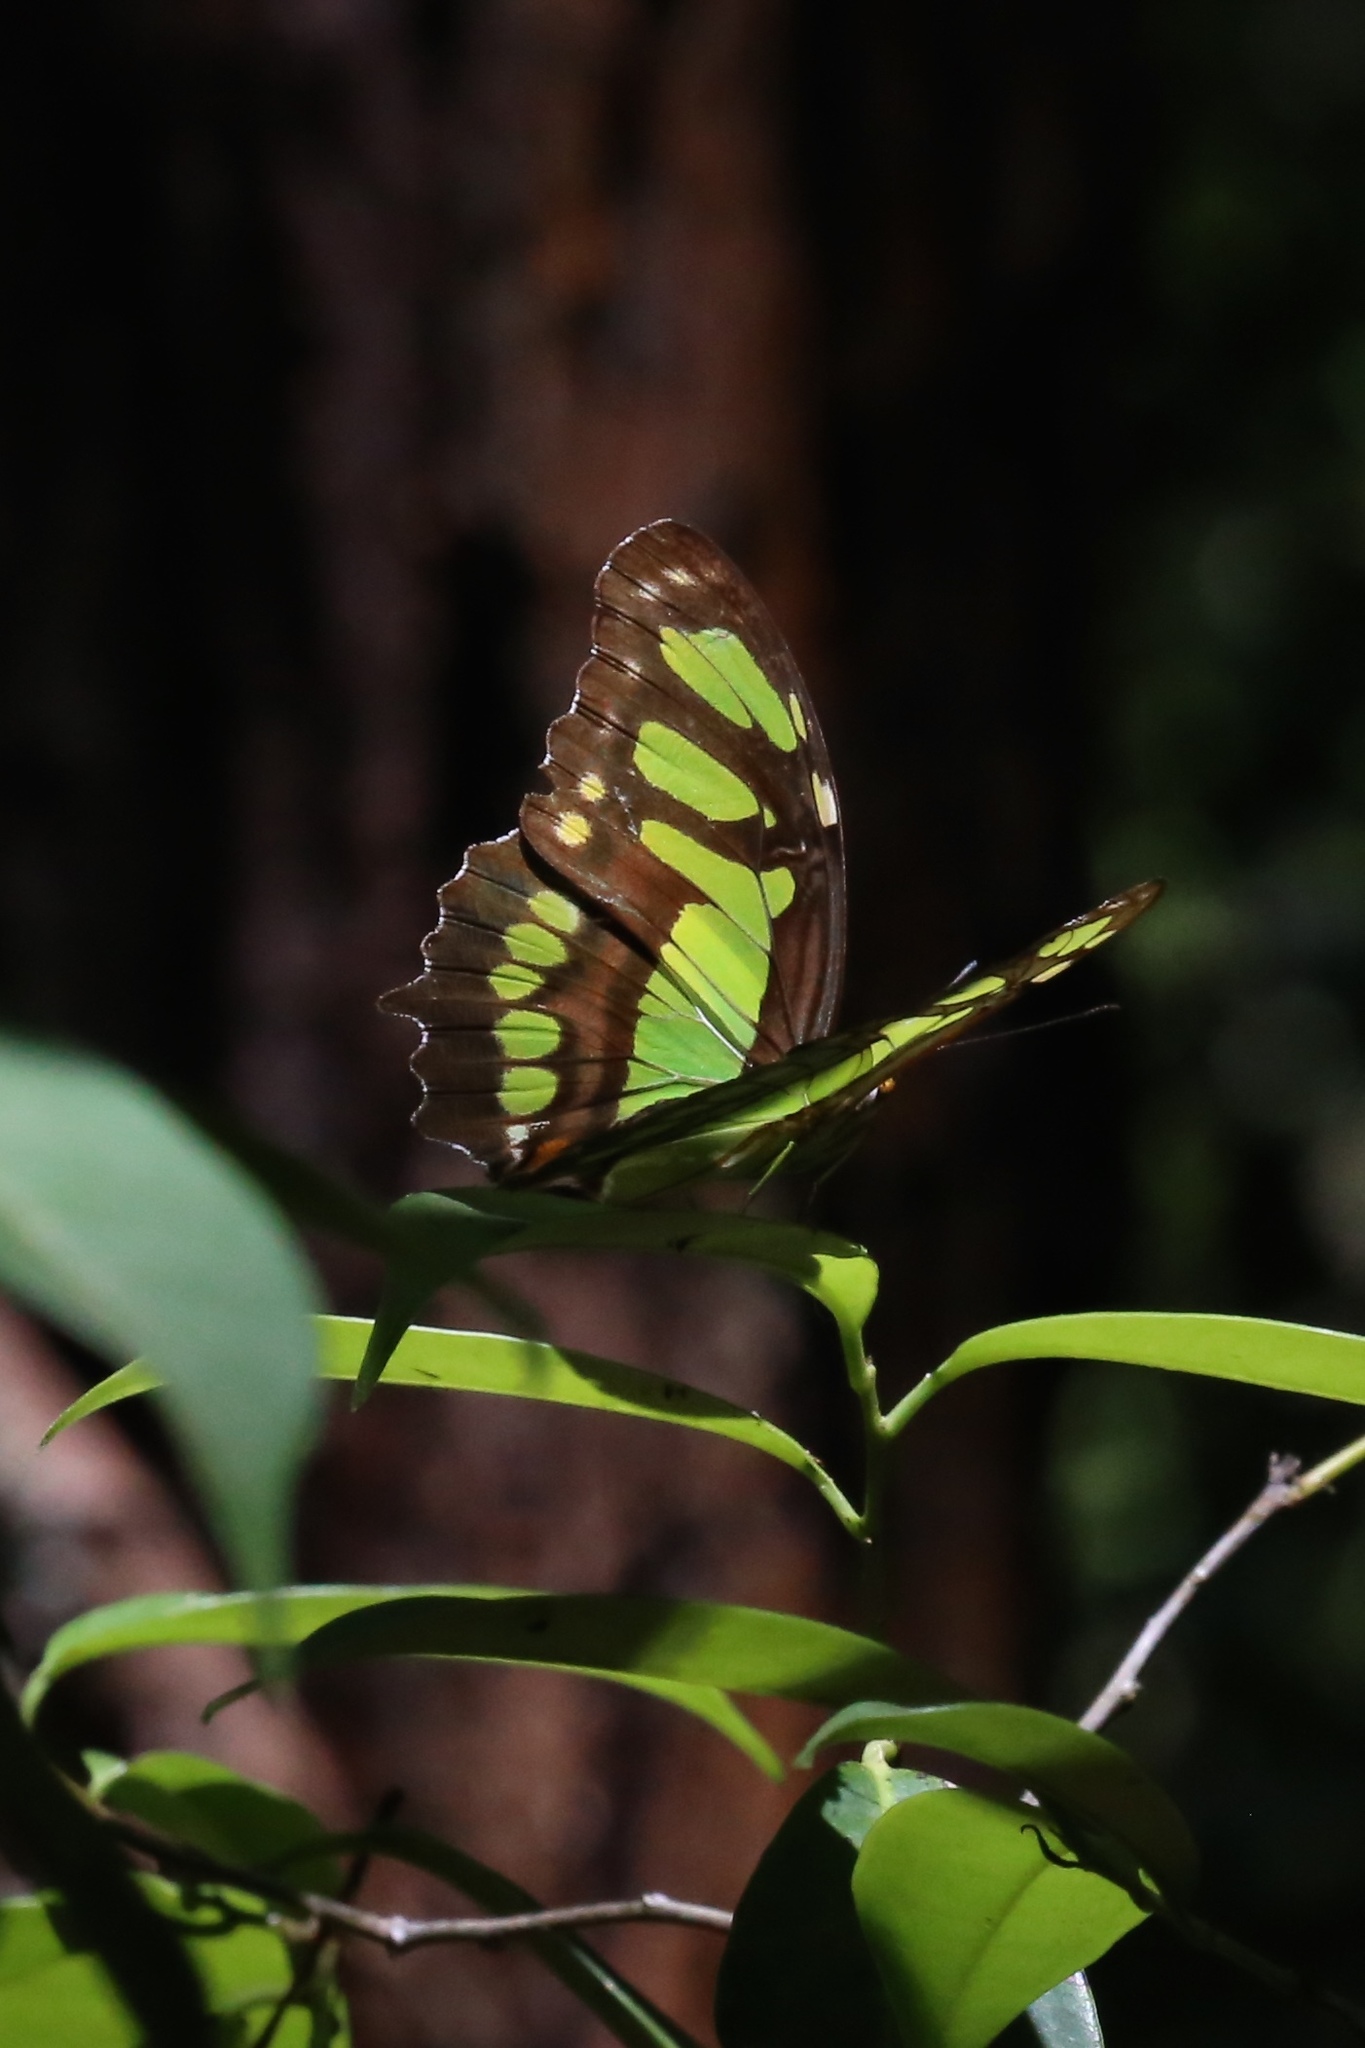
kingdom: Animalia
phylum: Arthropoda
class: Insecta
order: Lepidoptera
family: Nymphalidae
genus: Siproeta
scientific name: Siproeta stelenes
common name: Malachite
